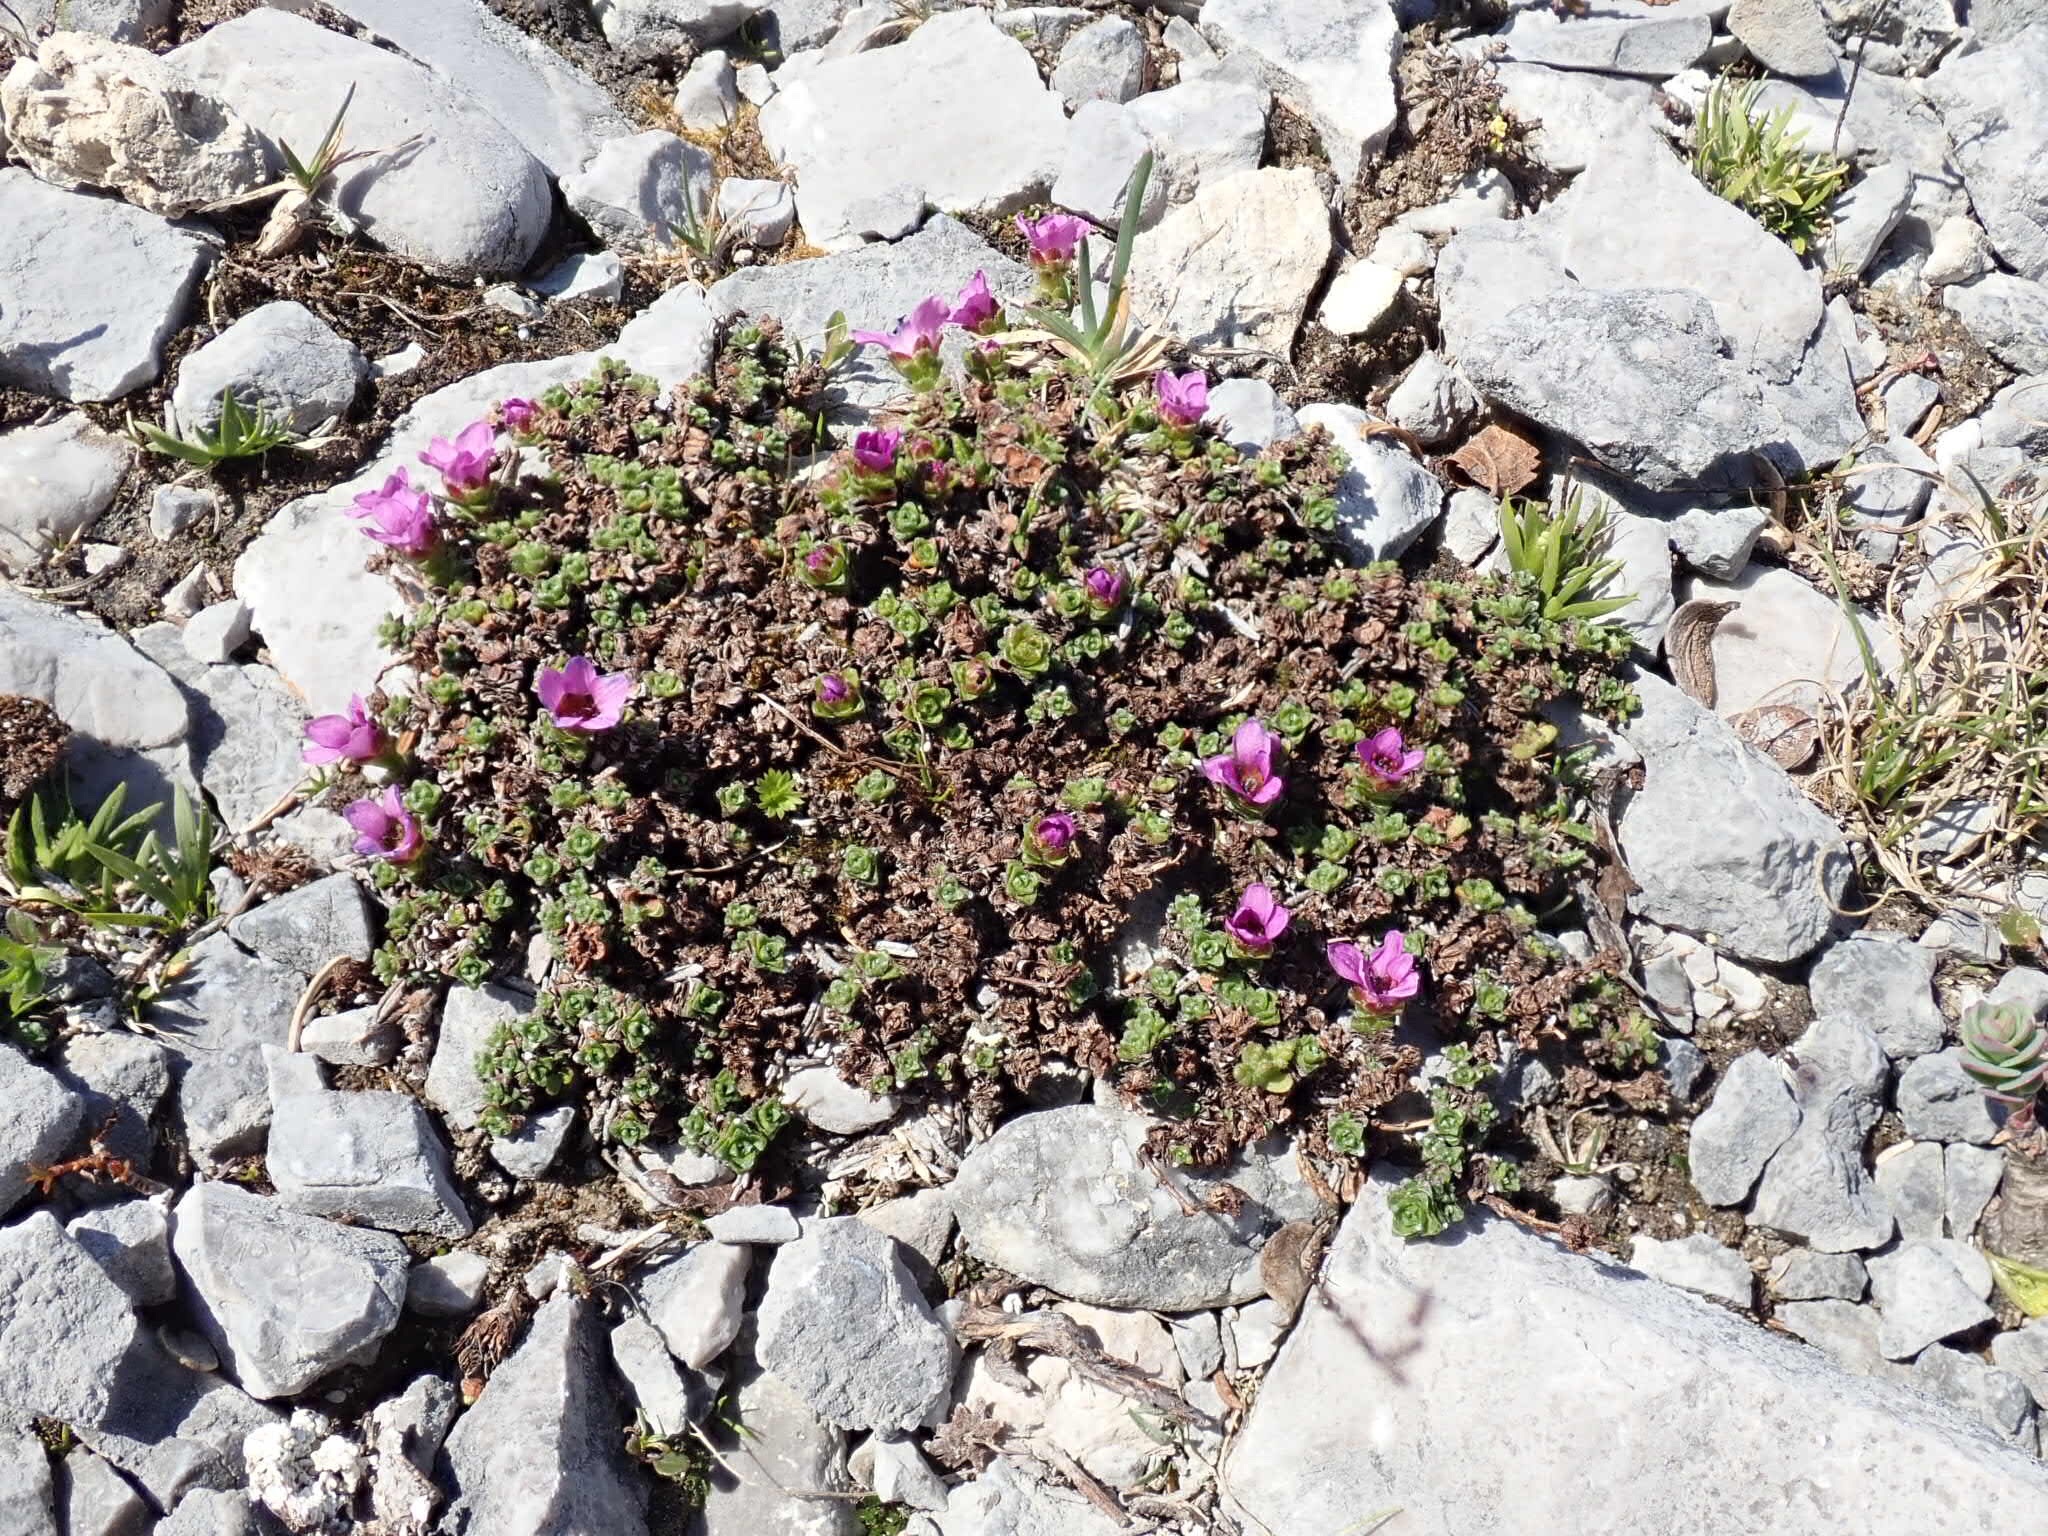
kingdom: Plantae
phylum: Tracheophyta
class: Magnoliopsida
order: Saxifragales
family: Saxifragaceae
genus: Saxifraga
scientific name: Saxifraga oppositifolia
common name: Purple saxifrage
